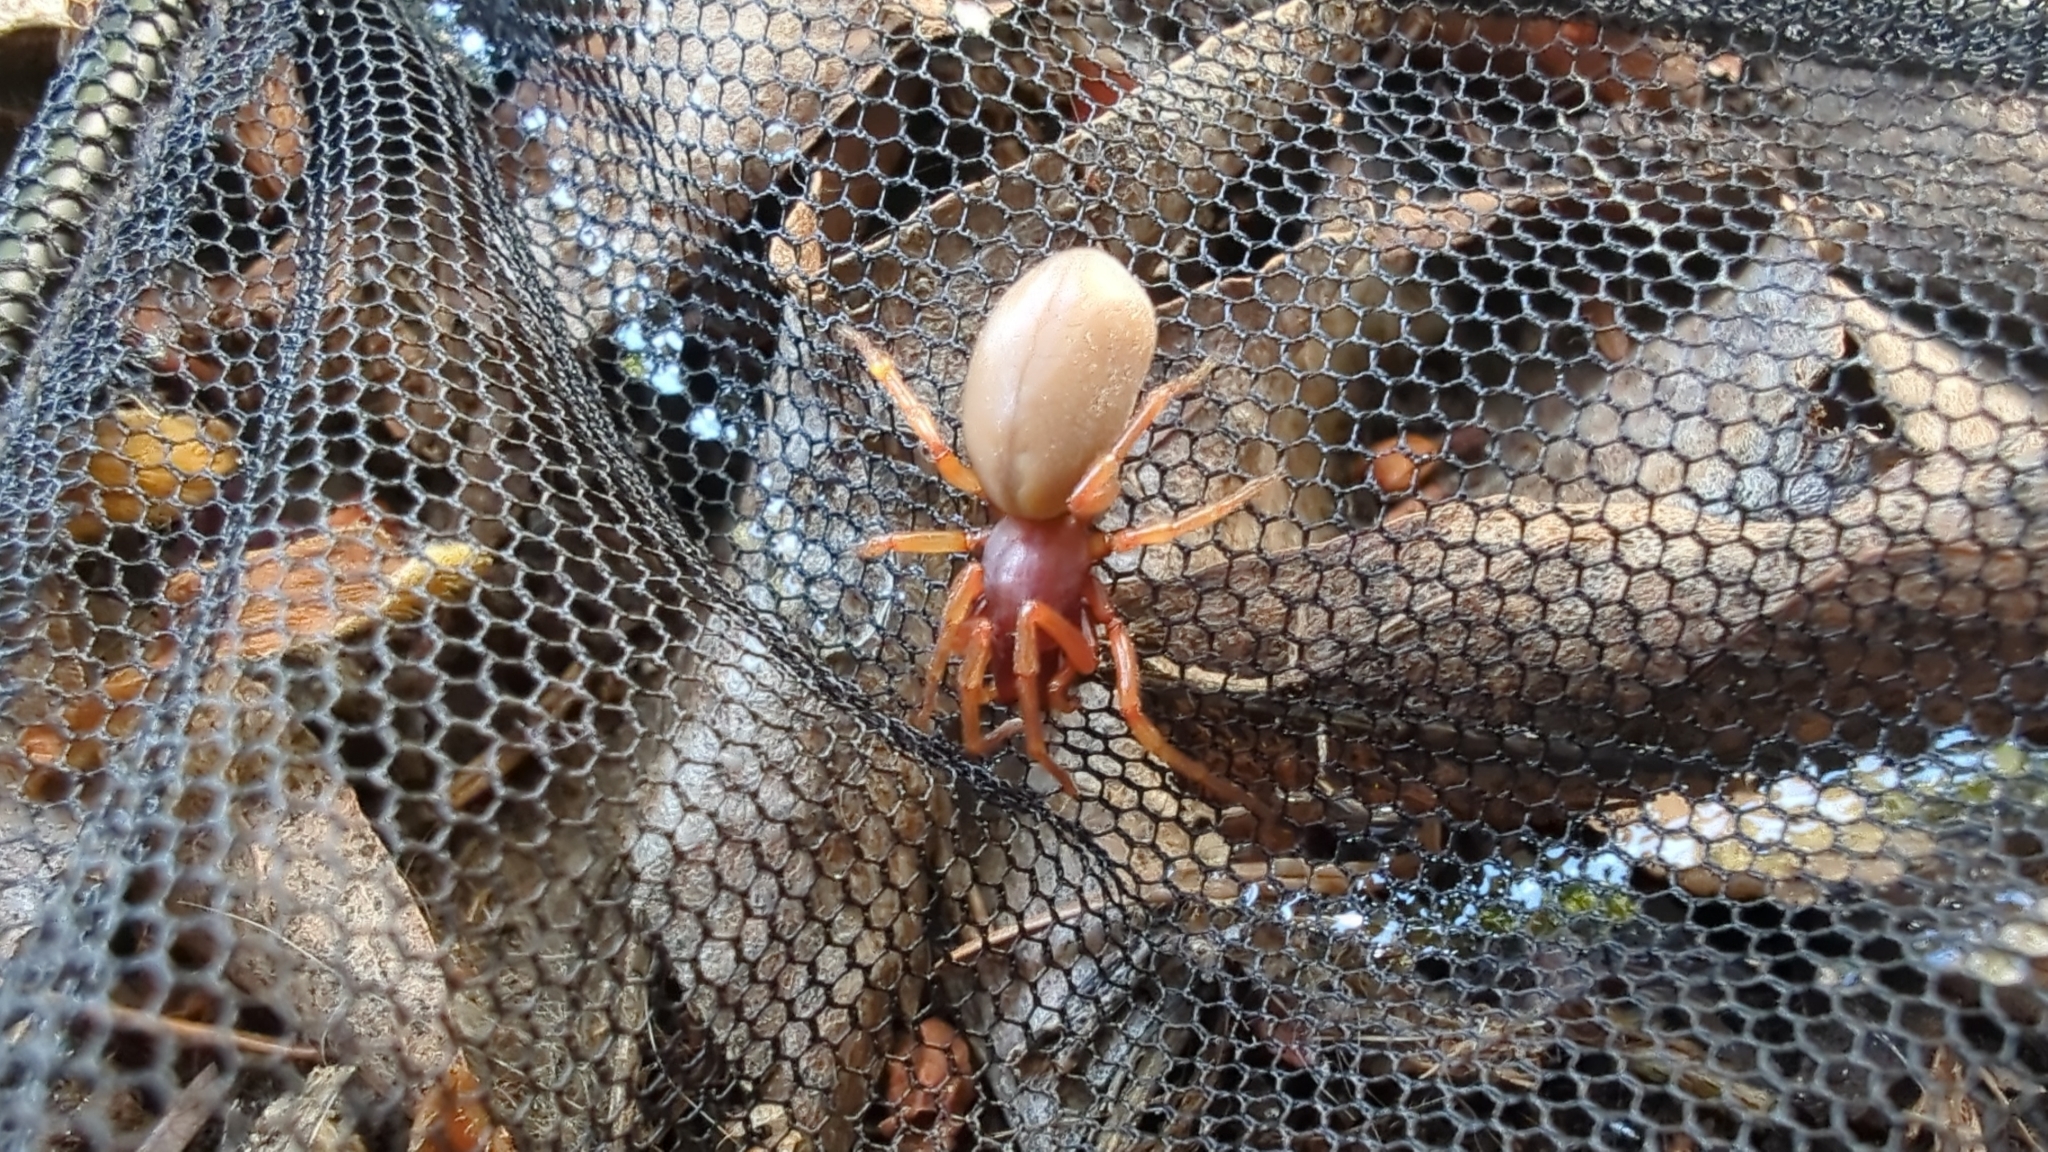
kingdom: Animalia
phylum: Arthropoda
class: Arachnida
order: Araneae
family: Dysderidae
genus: Dysdera
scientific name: Dysdera crocata
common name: Woodlouse spider
